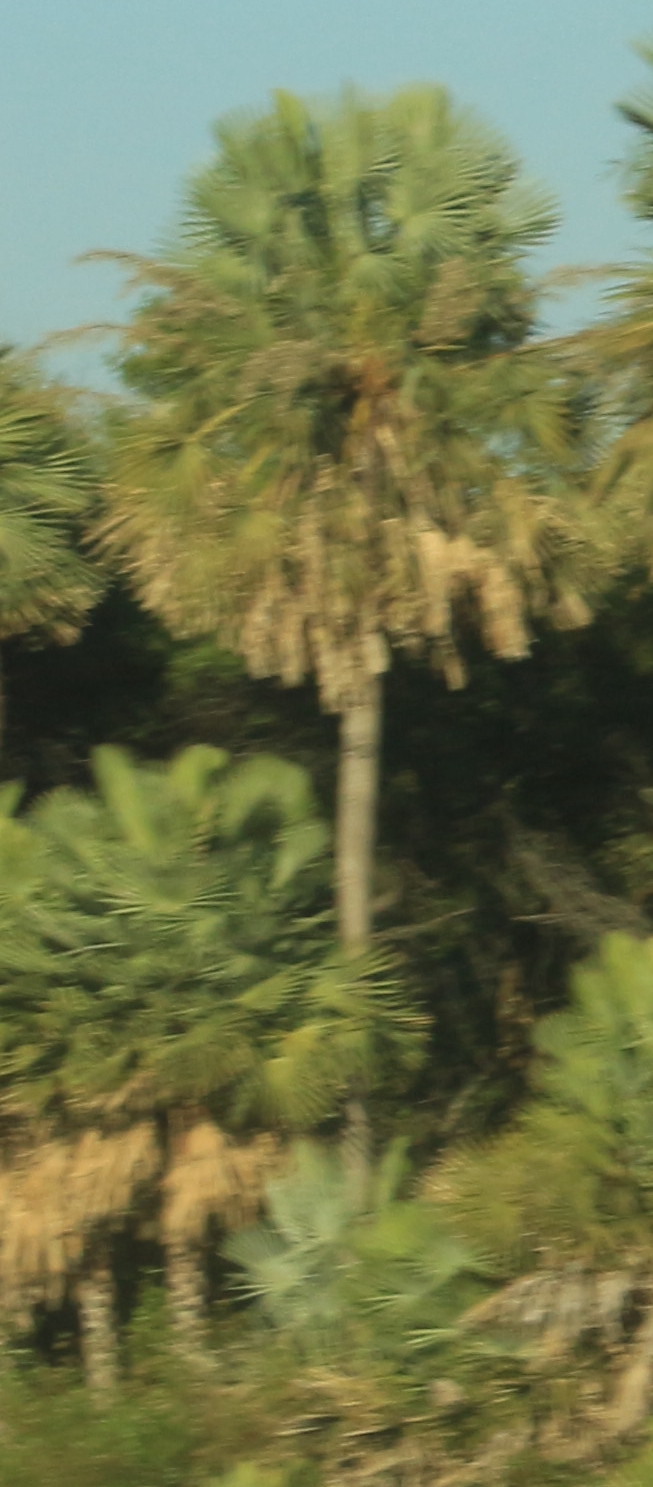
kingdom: Plantae
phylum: Tracheophyta
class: Liliopsida
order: Arecales
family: Arecaceae
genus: Copernicia
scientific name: Copernicia alba
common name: Caranday palm
